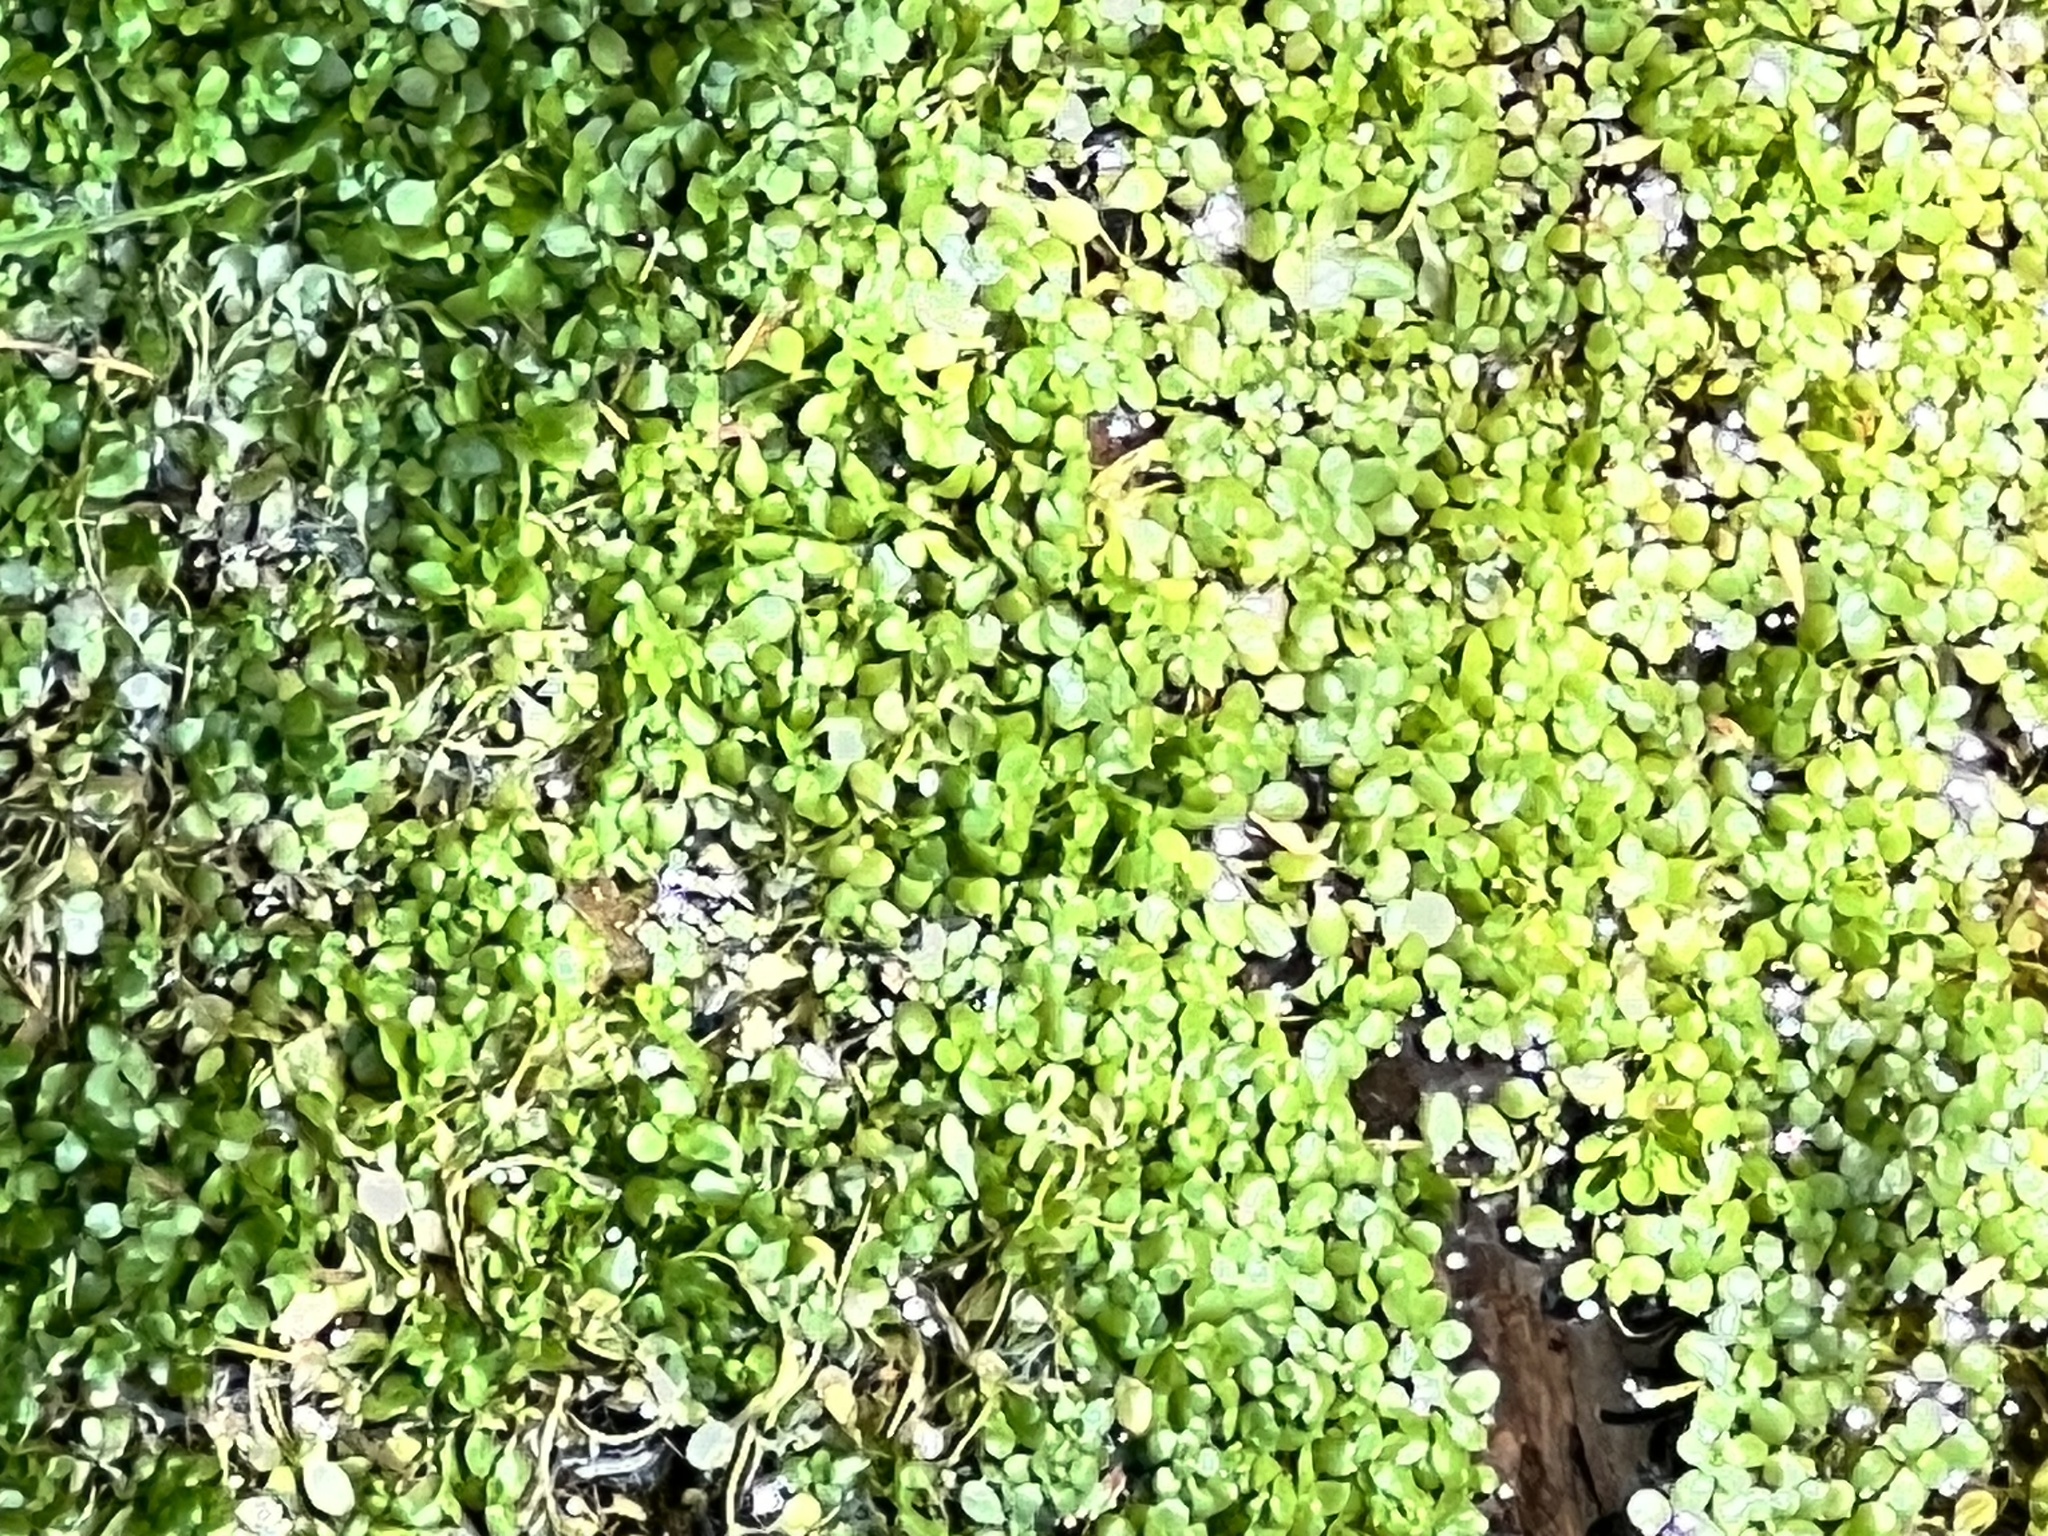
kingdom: Plantae
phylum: Tracheophyta
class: Magnoliopsida
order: Lamiales
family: Plantaginaceae
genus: Callitriche
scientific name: Callitriche stagnalis
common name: Common water-starwort
